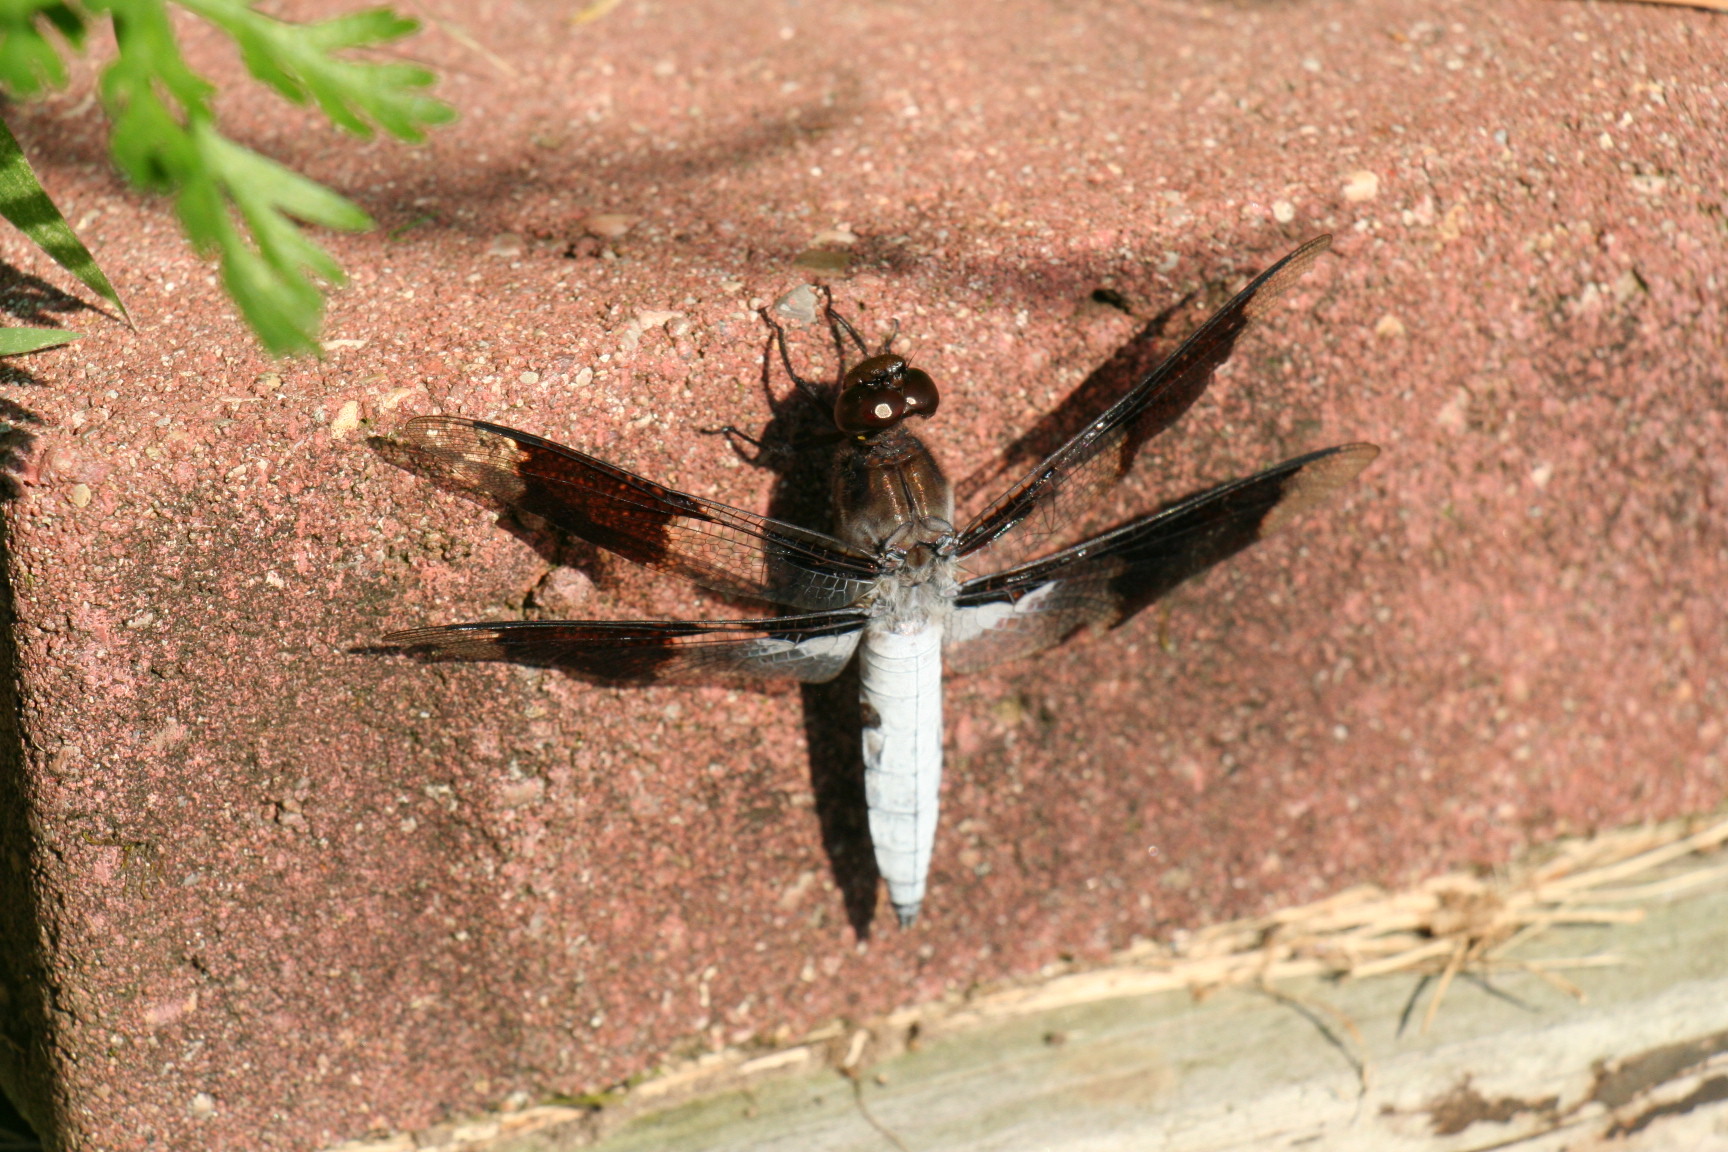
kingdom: Animalia
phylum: Arthropoda
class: Insecta
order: Odonata
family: Libellulidae
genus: Plathemis
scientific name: Plathemis lydia
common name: Common whitetail
